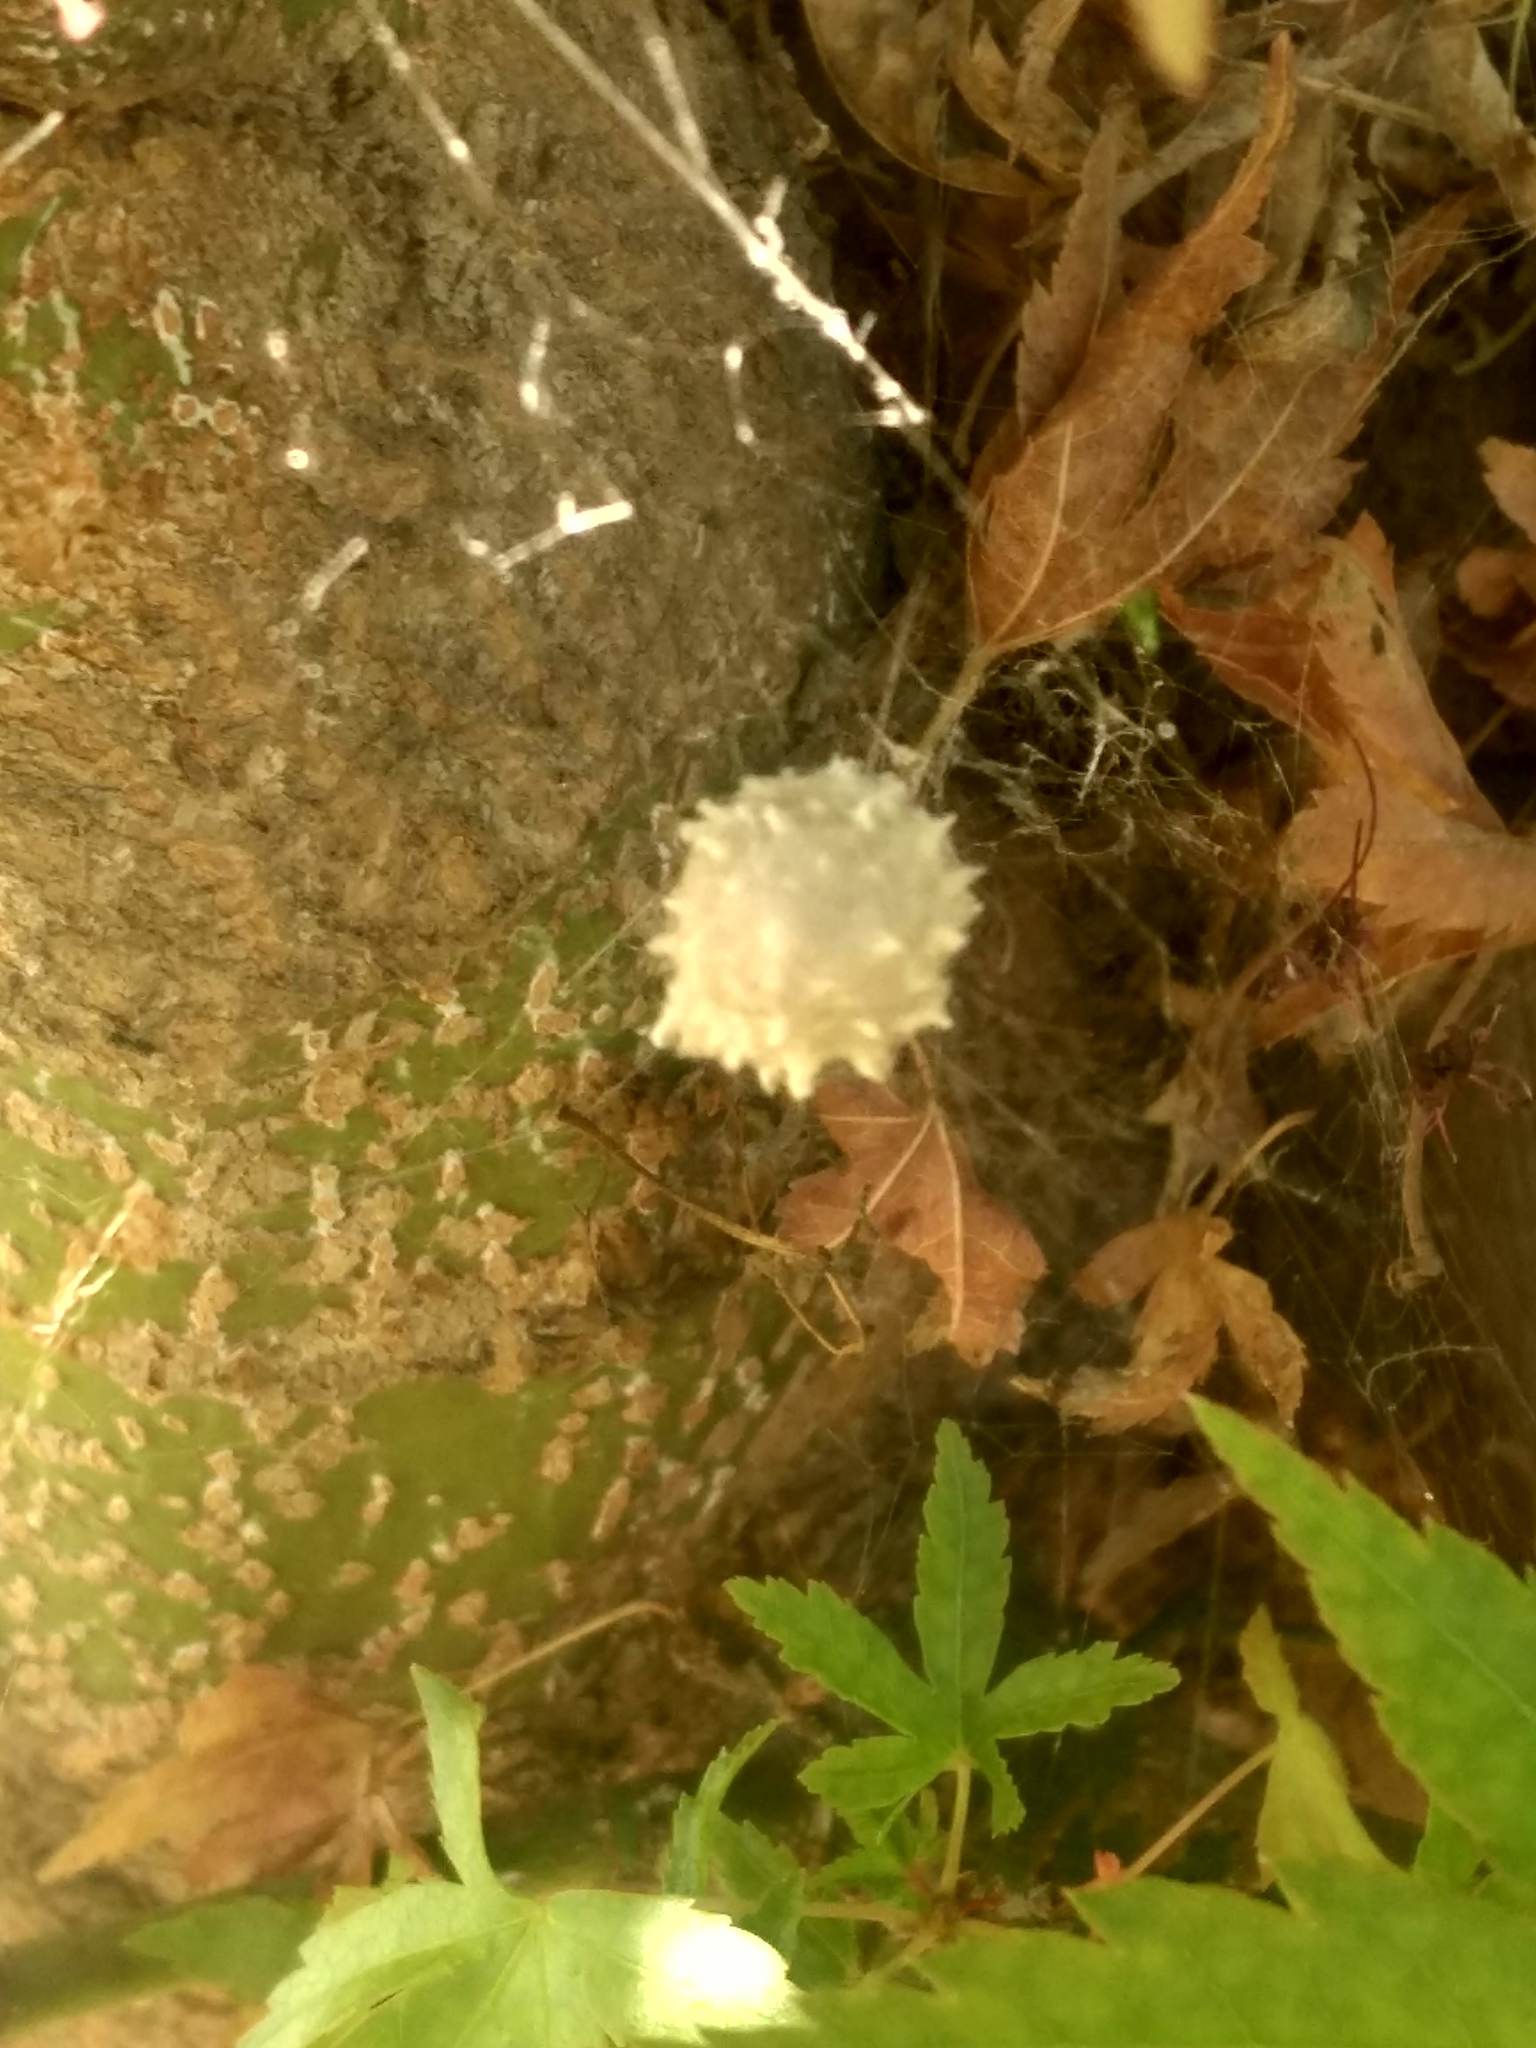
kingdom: Animalia
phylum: Arthropoda
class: Arachnida
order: Araneae
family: Theridiidae
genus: Latrodectus
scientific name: Latrodectus geometricus
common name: Brown widow spider
